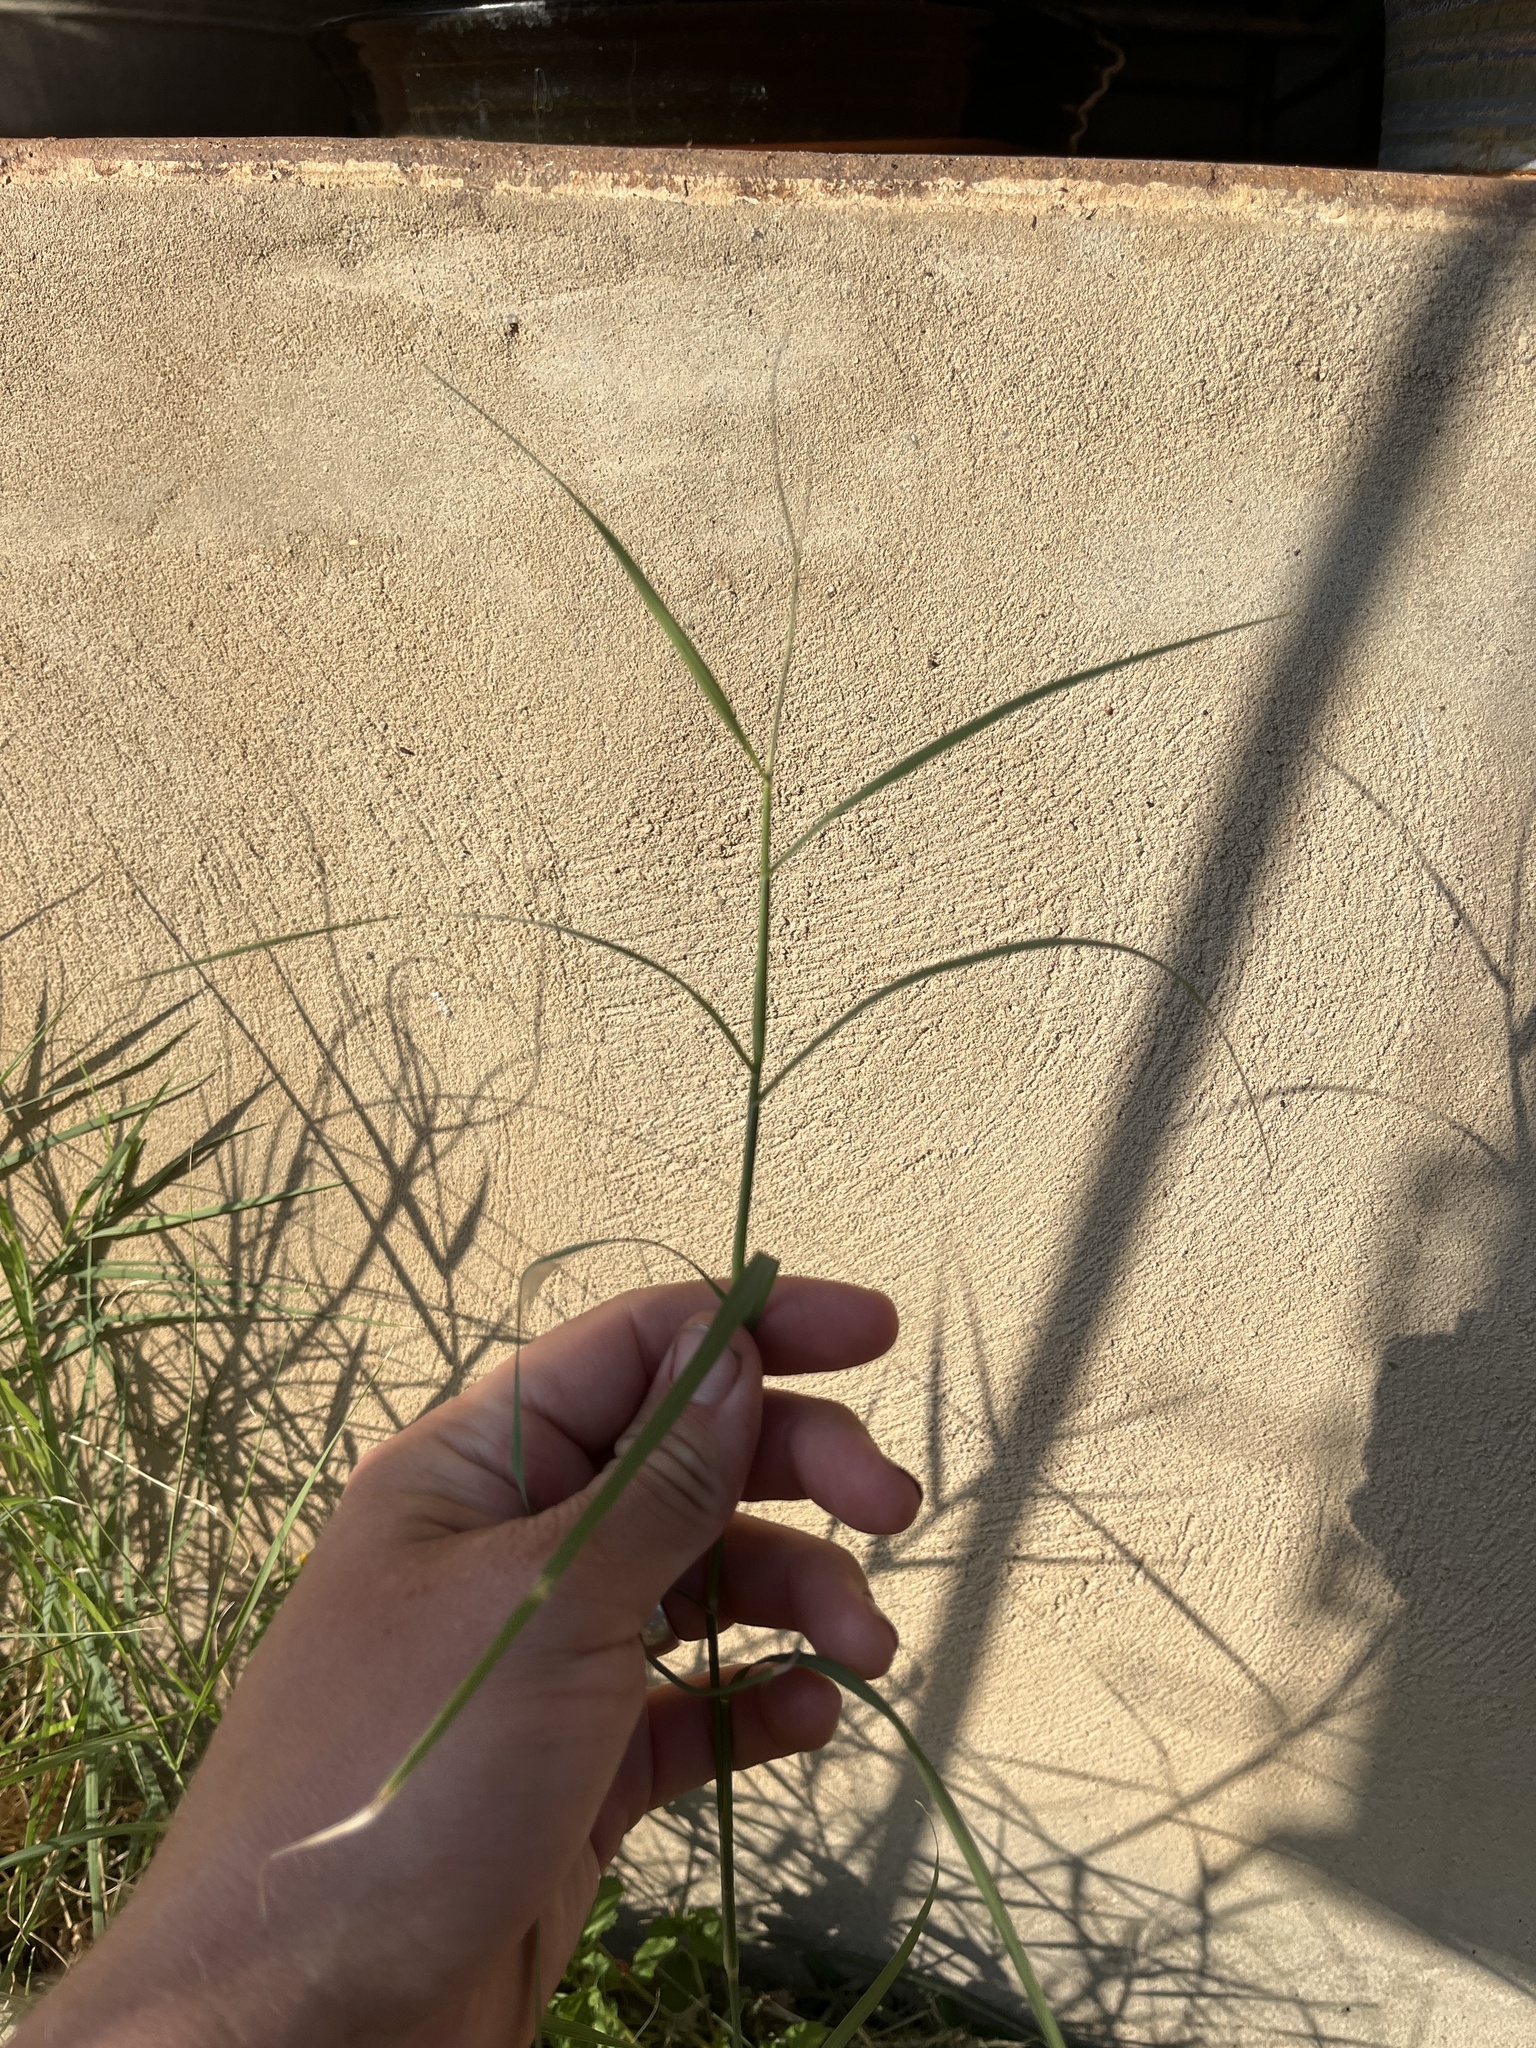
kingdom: Plantae
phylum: Tracheophyta
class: Liliopsida
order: Poales
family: Poaceae
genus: Cynodon
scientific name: Cynodon dactylon
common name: Bermuda grass
